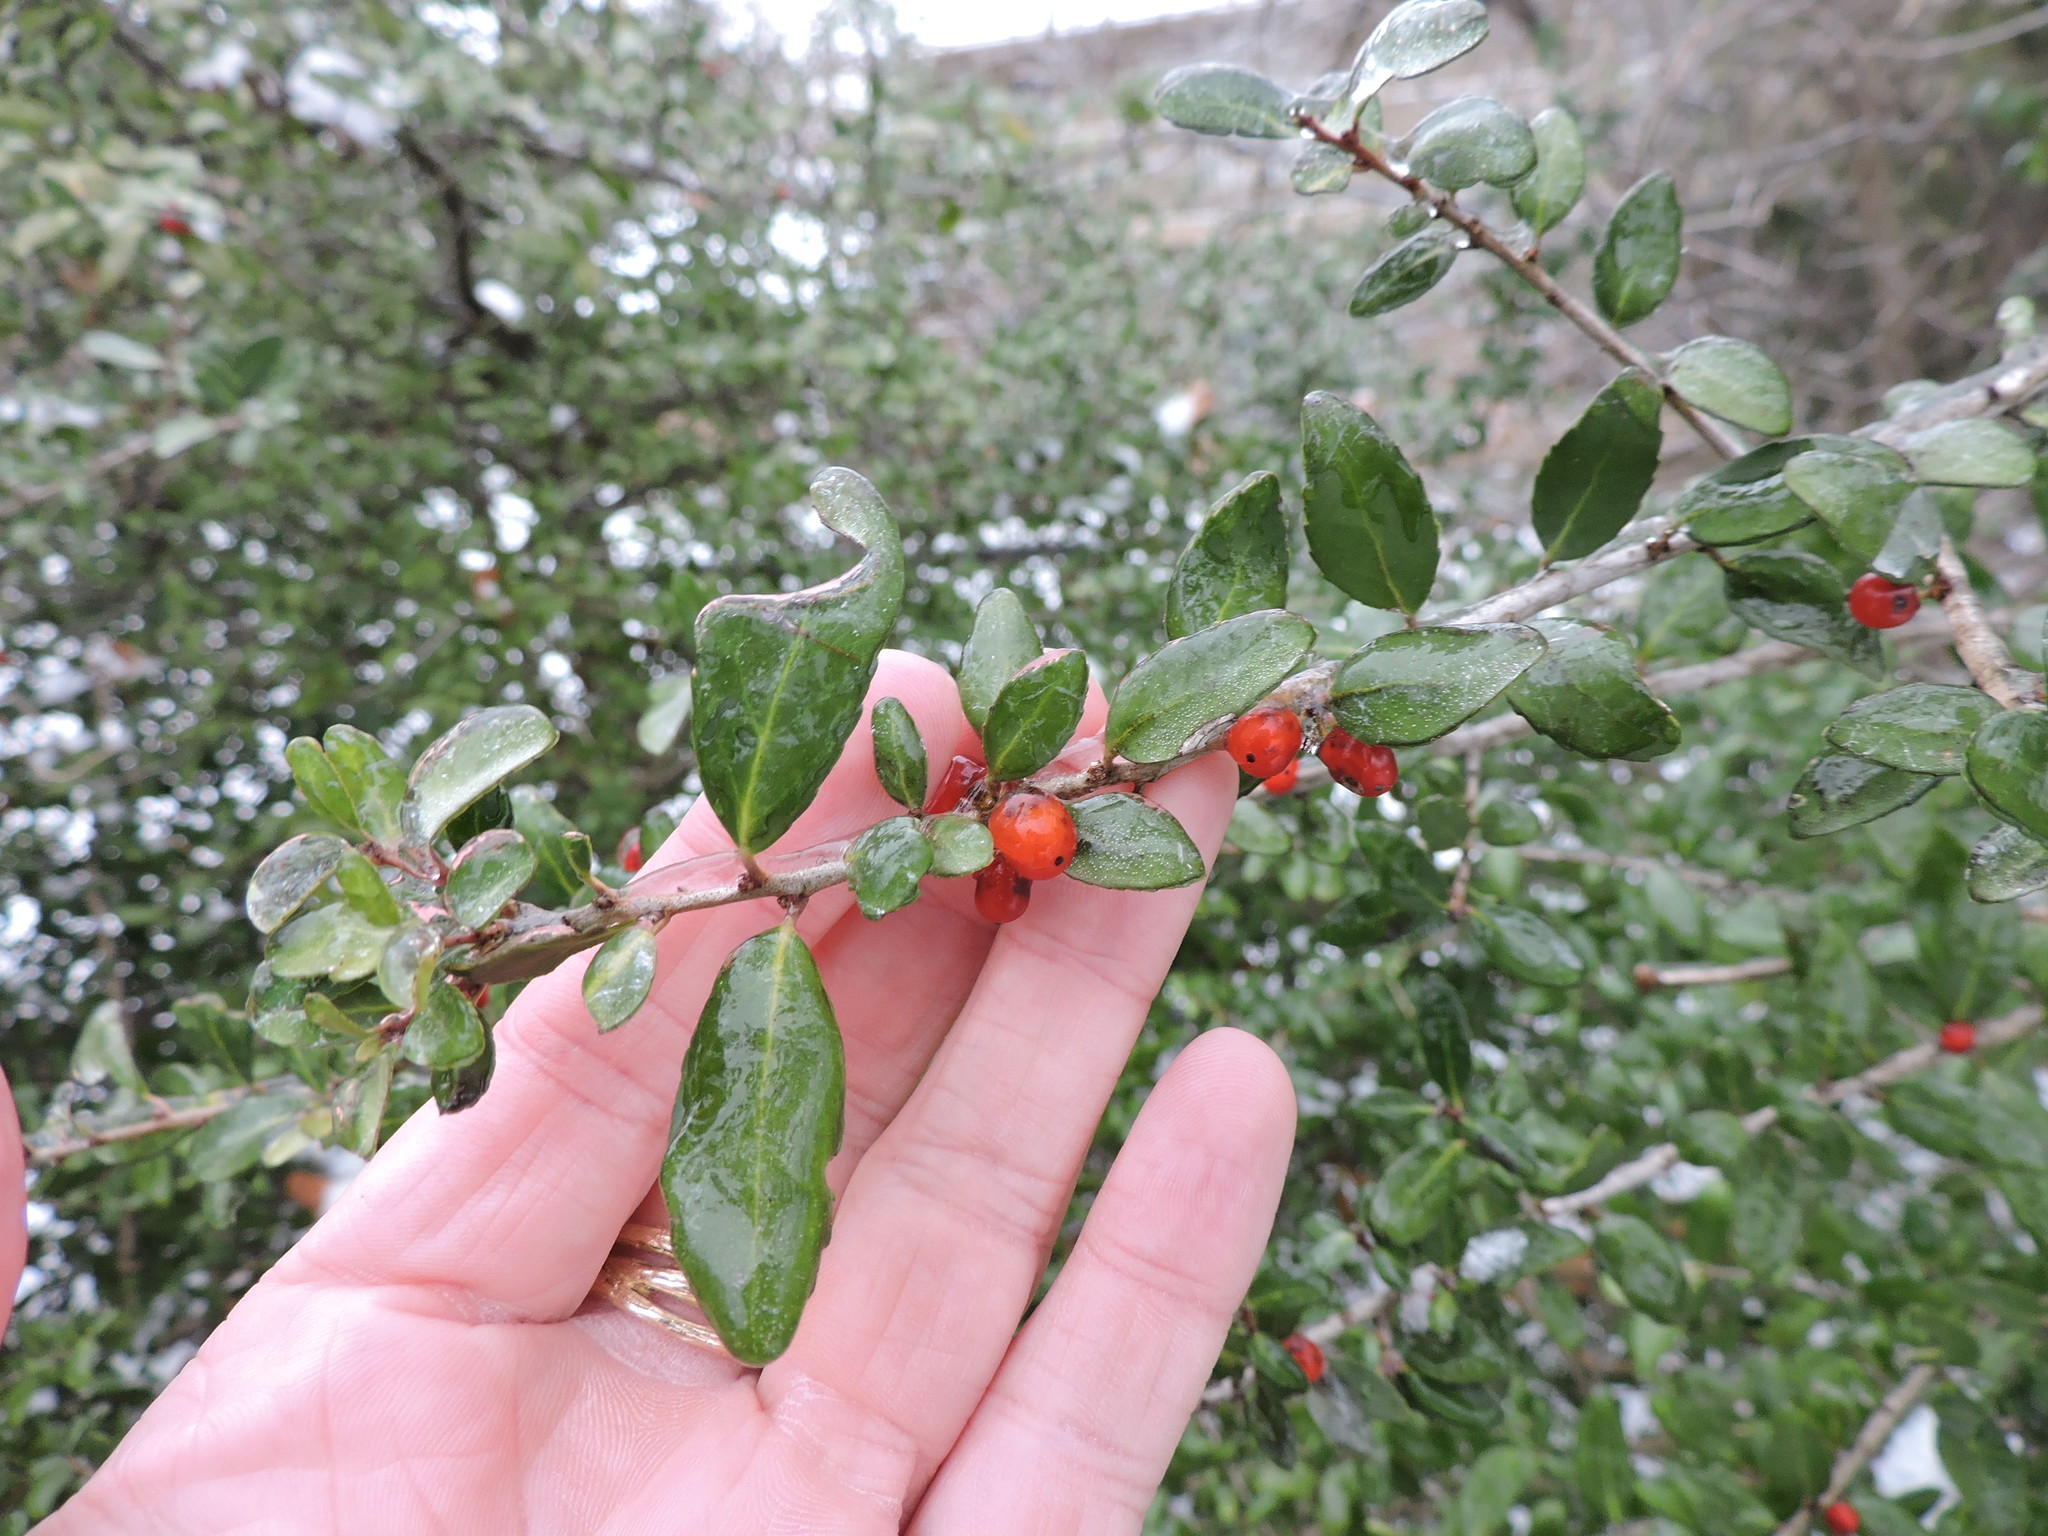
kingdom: Plantae
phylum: Tracheophyta
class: Magnoliopsida
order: Aquifoliales
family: Aquifoliaceae
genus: Ilex
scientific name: Ilex vomitoria
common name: Yaupon holly
